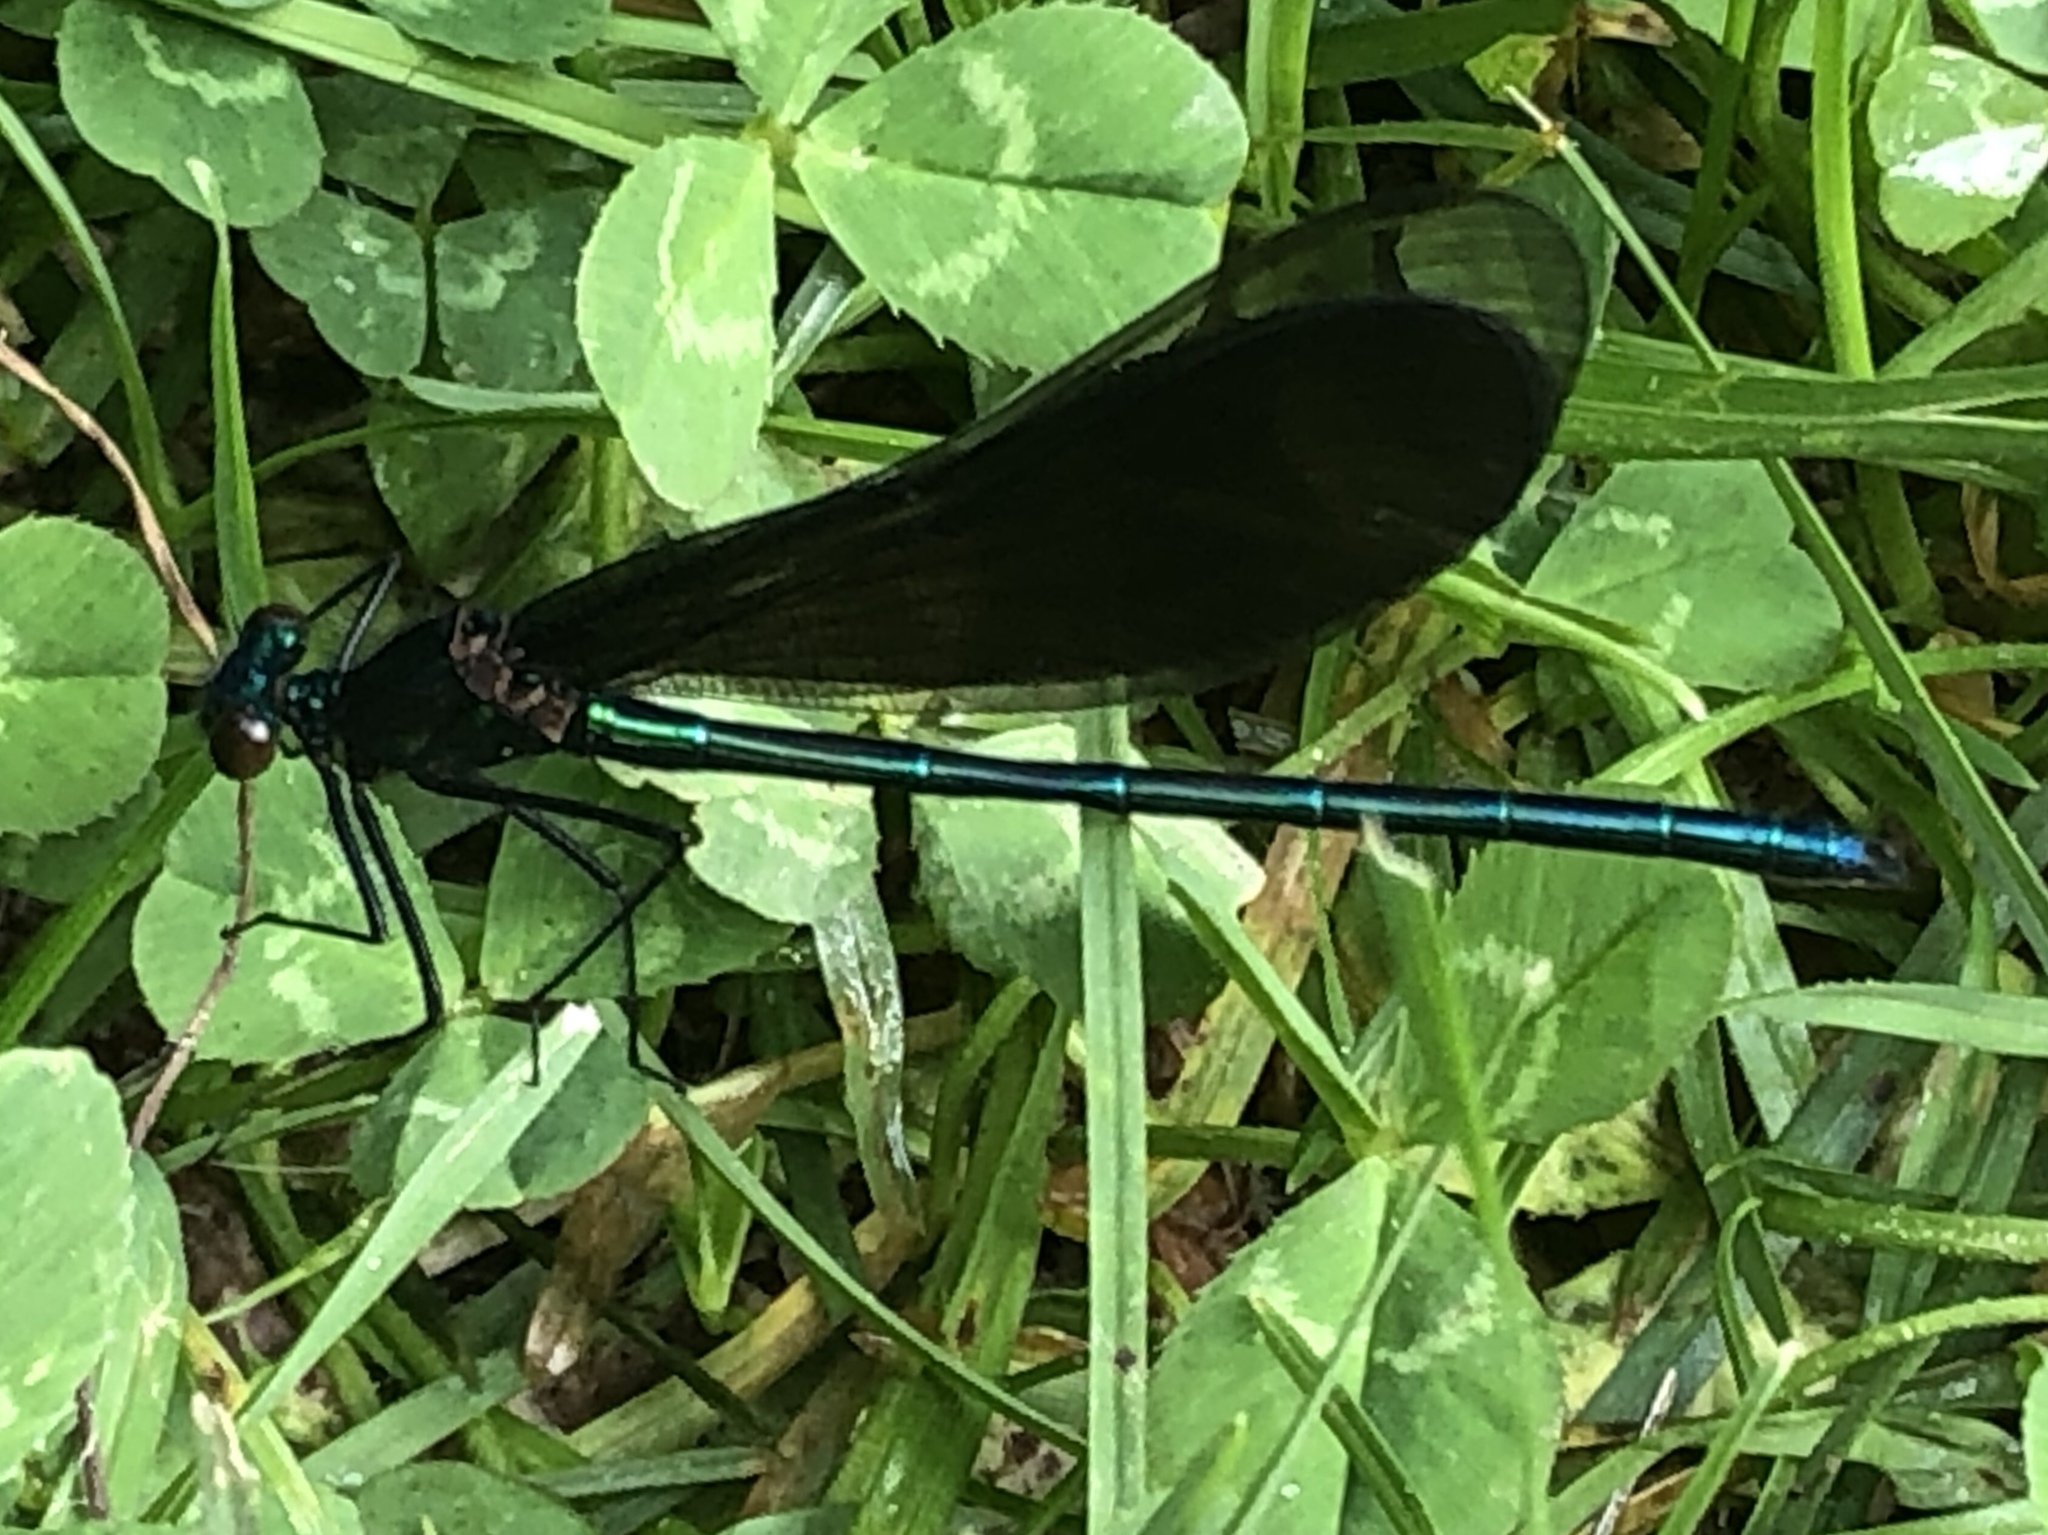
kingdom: Animalia
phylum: Arthropoda
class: Insecta
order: Odonata
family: Calopterygidae
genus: Calopteryx
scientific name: Calopteryx maculata
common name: Ebony jewelwing
